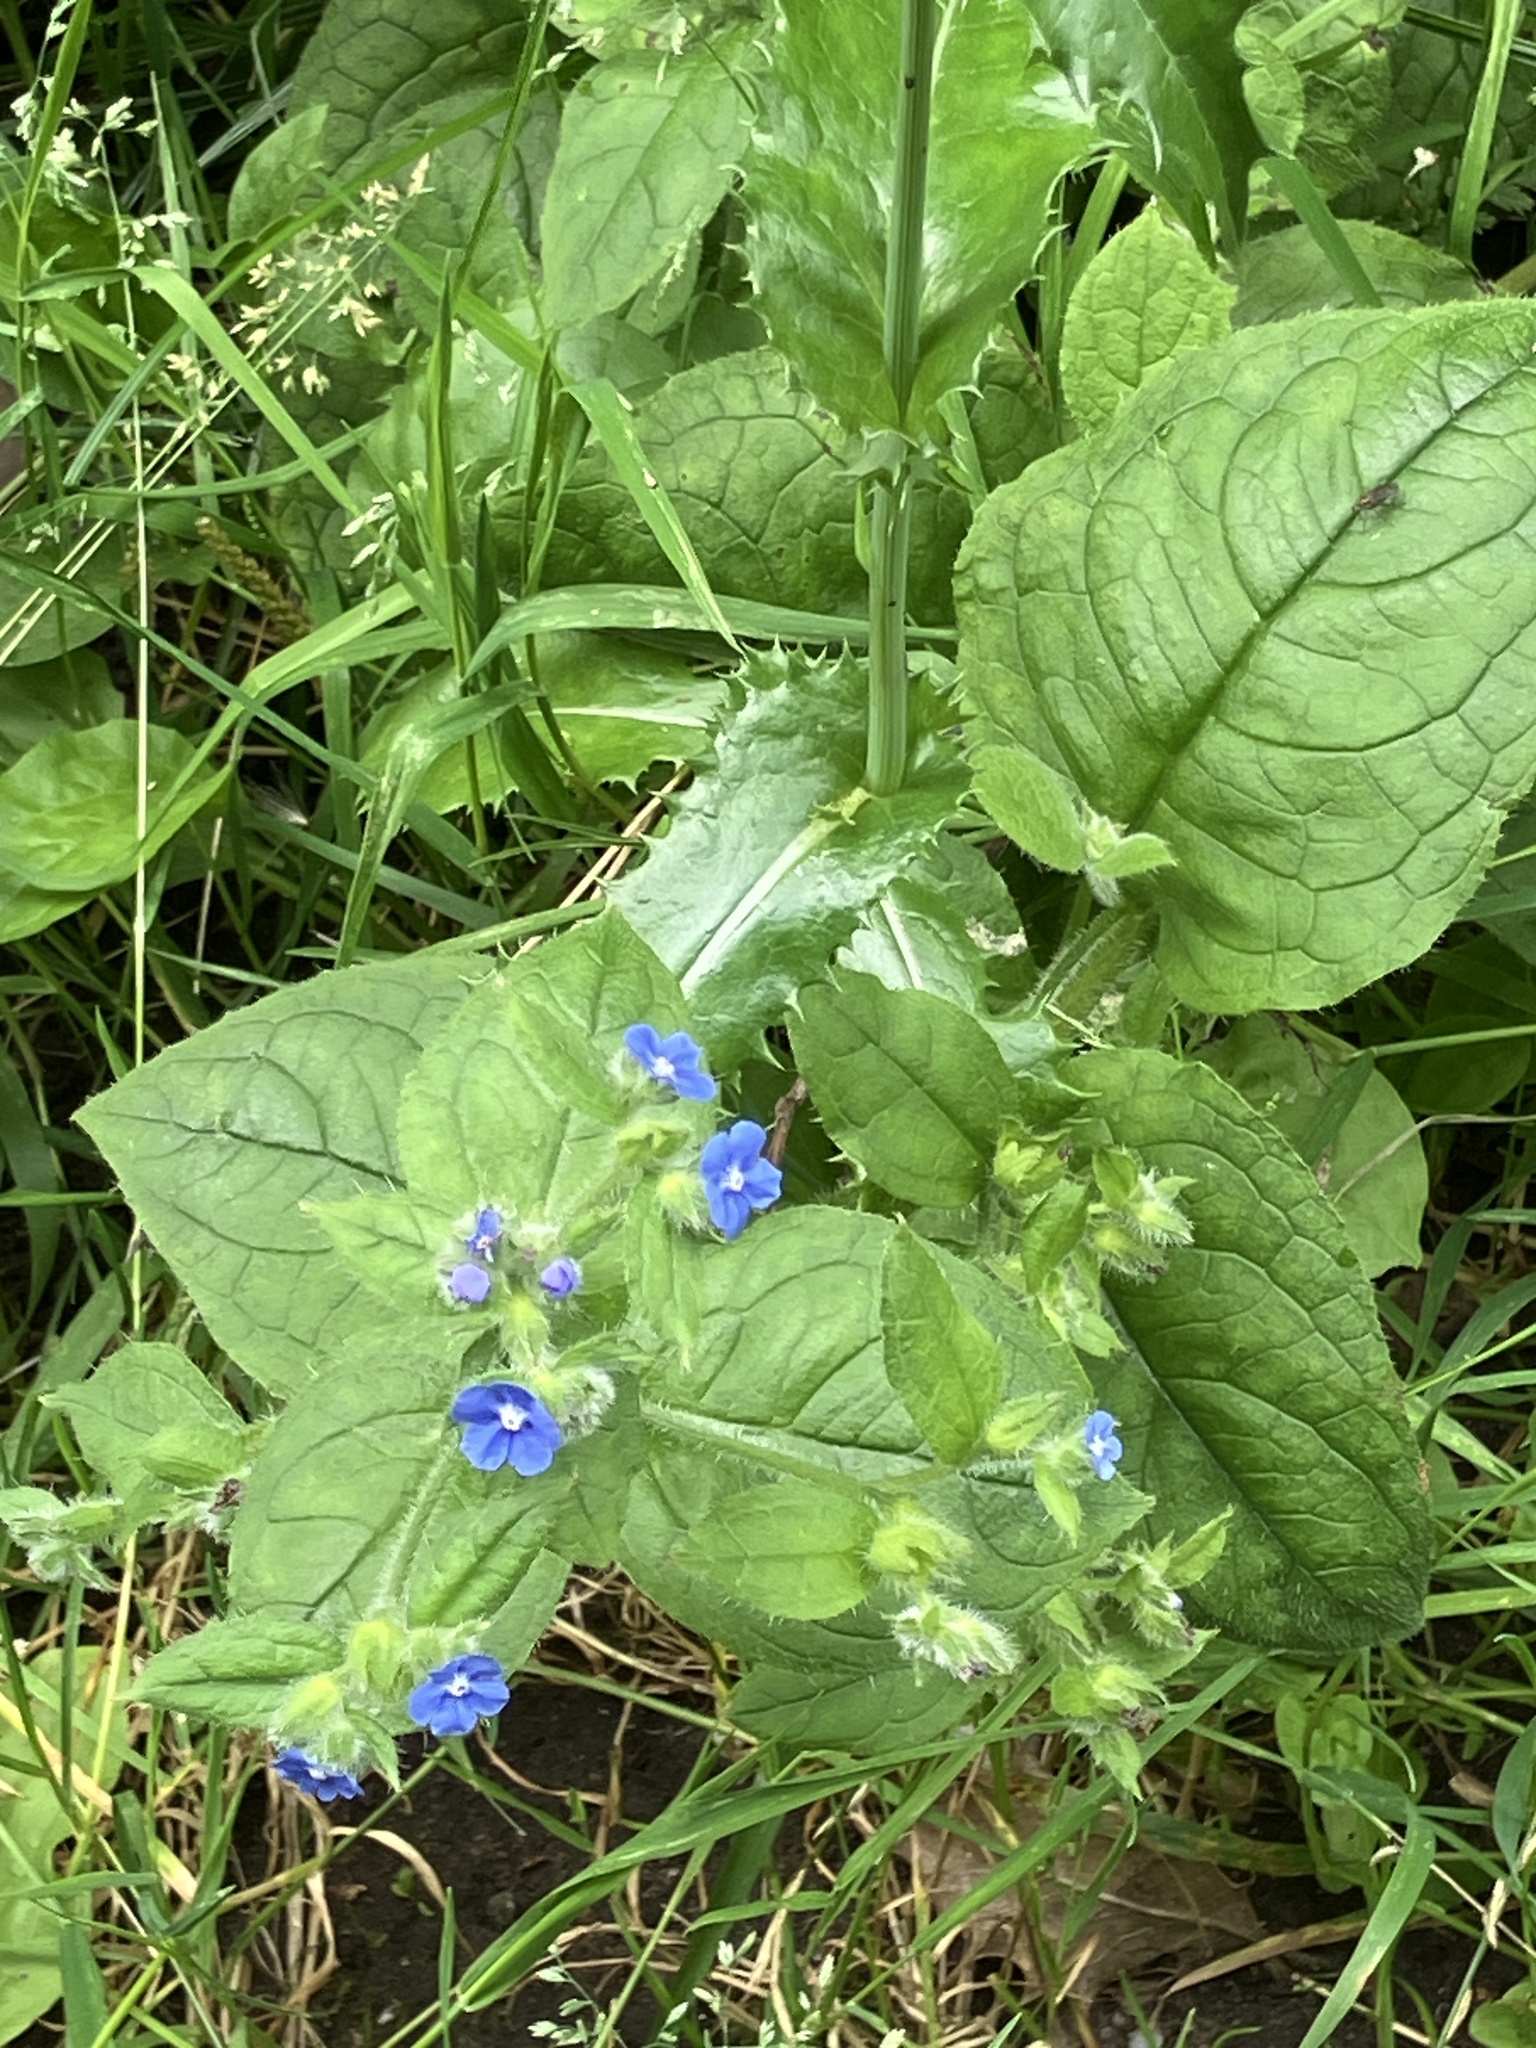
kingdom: Plantae
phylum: Tracheophyta
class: Magnoliopsida
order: Boraginales
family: Boraginaceae
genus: Pentaglottis
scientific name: Pentaglottis sempervirens
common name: Green alkanet
